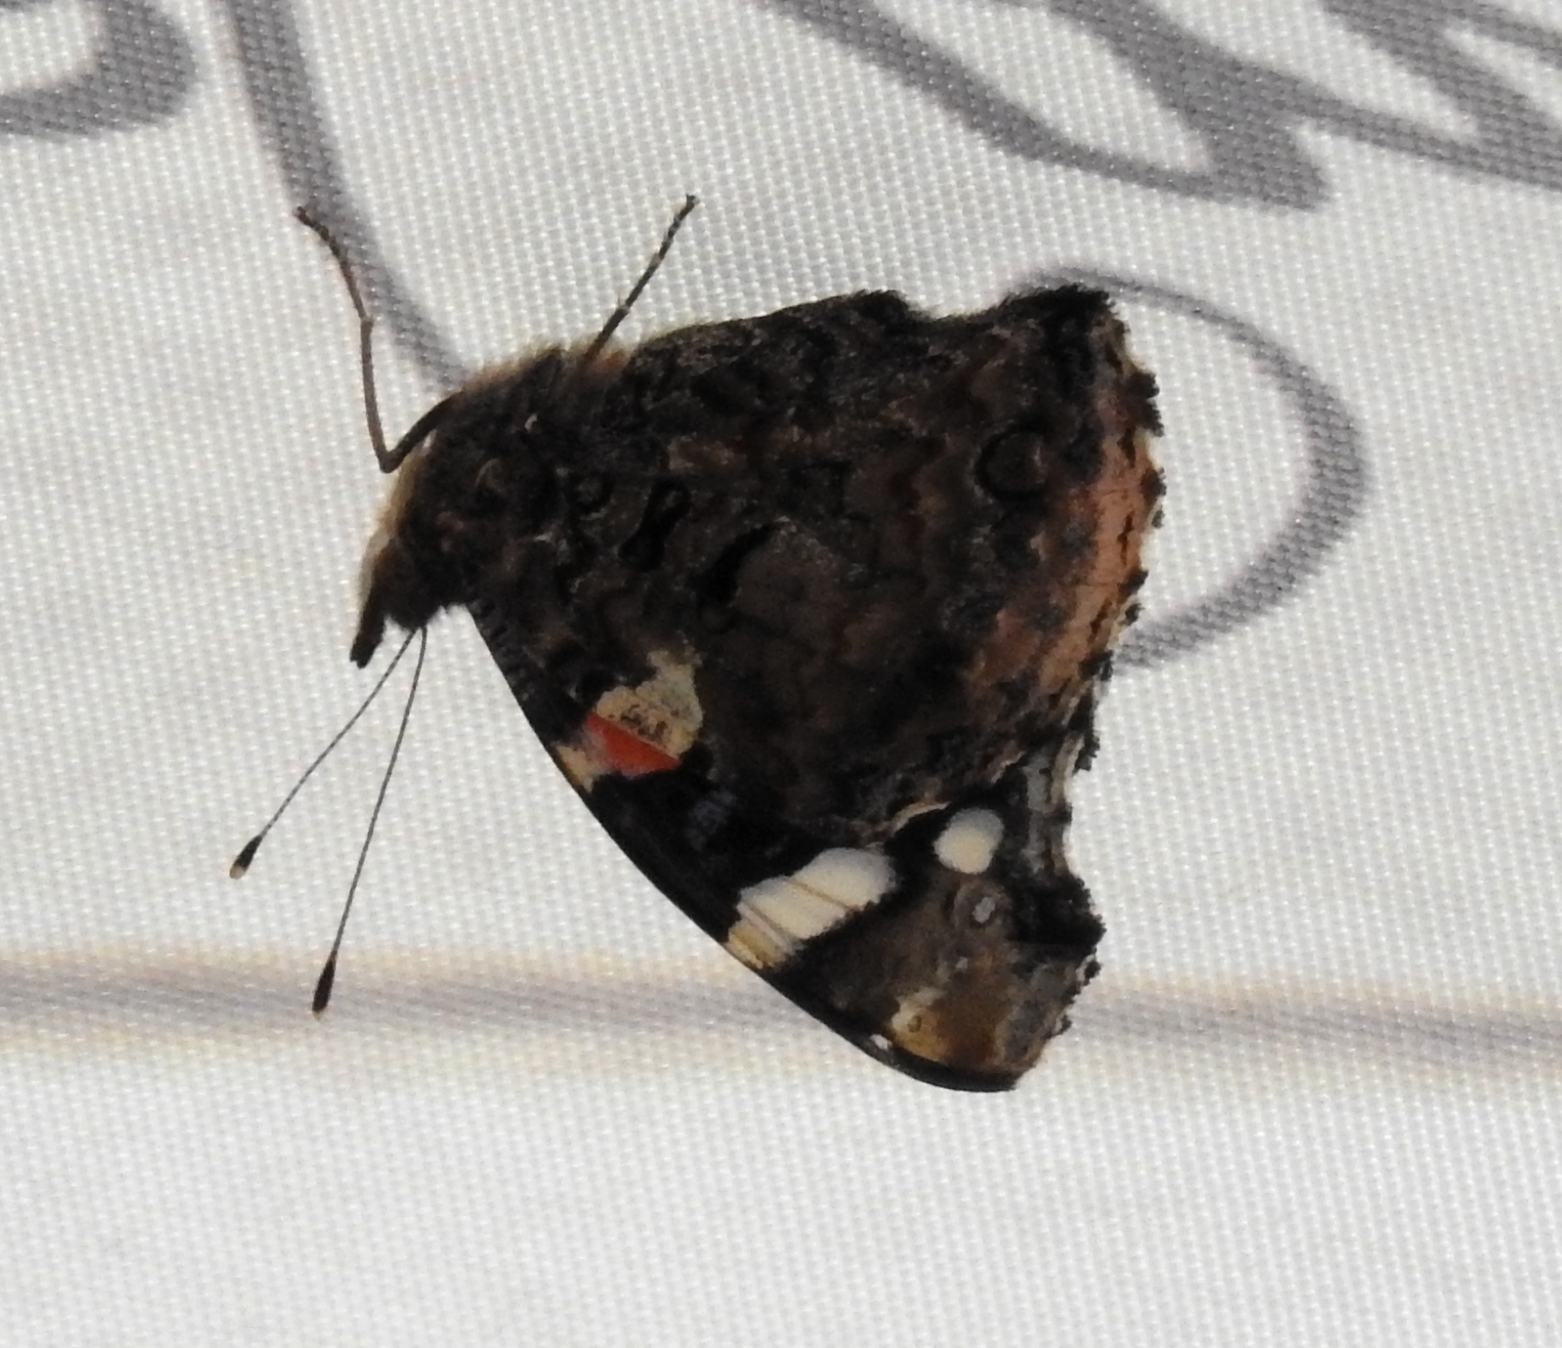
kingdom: Animalia
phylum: Arthropoda
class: Insecta
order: Lepidoptera
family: Nymphalidae
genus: Vanessa
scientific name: Vanessa atalanta
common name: Red admiral
